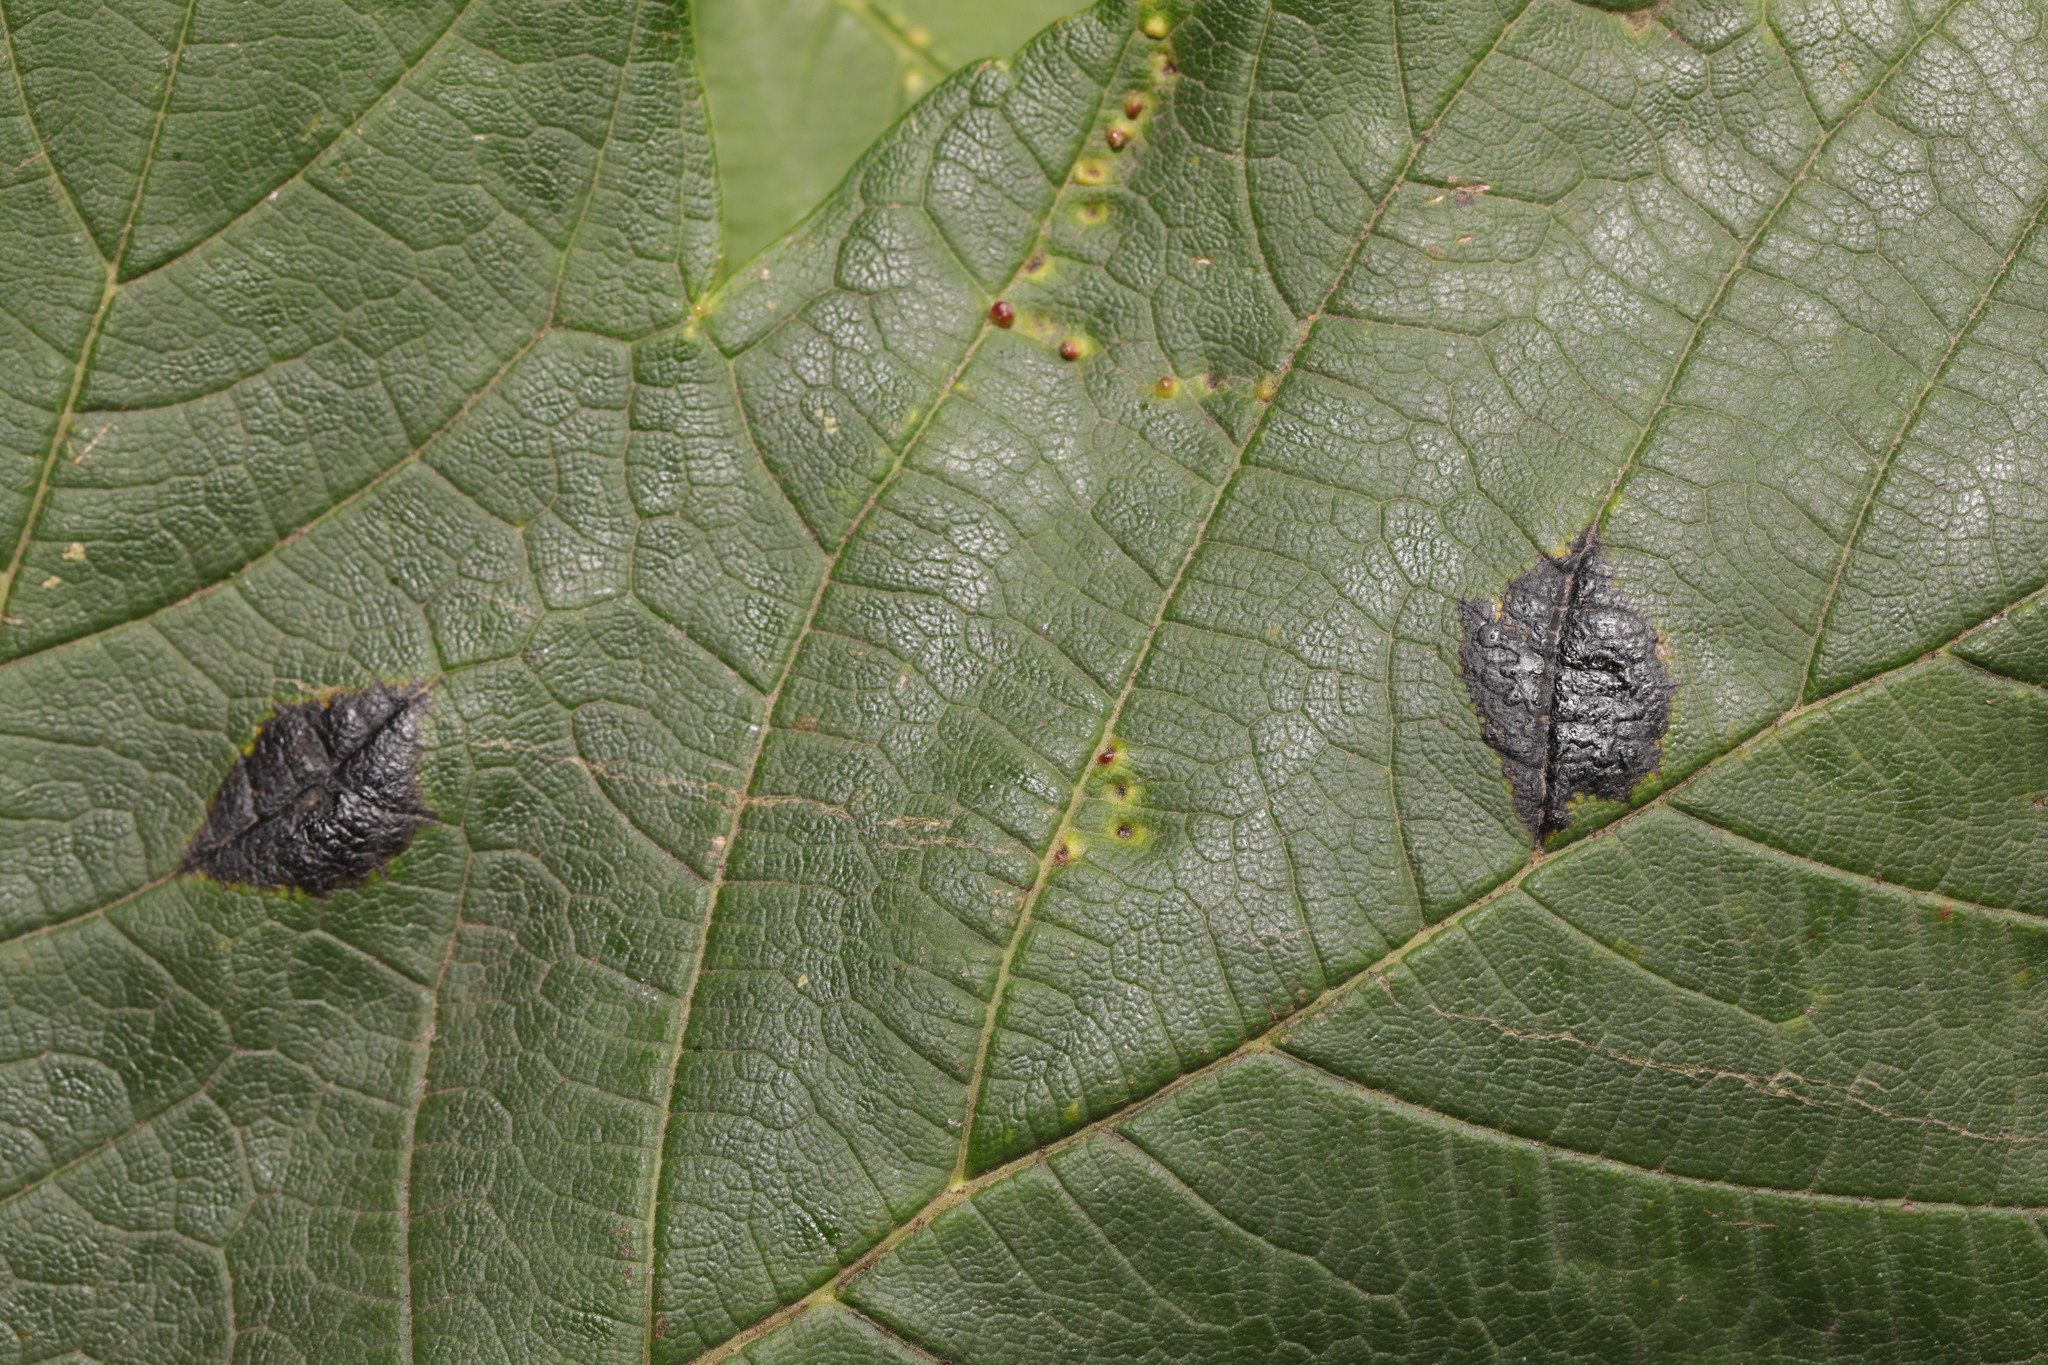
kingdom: Fungi
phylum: Ascomycota
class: Leotiomycetes
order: Rhytismatales
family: Rhytismataceae
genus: Rhytisma
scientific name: Rhytisma acerinum
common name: European tar spot
